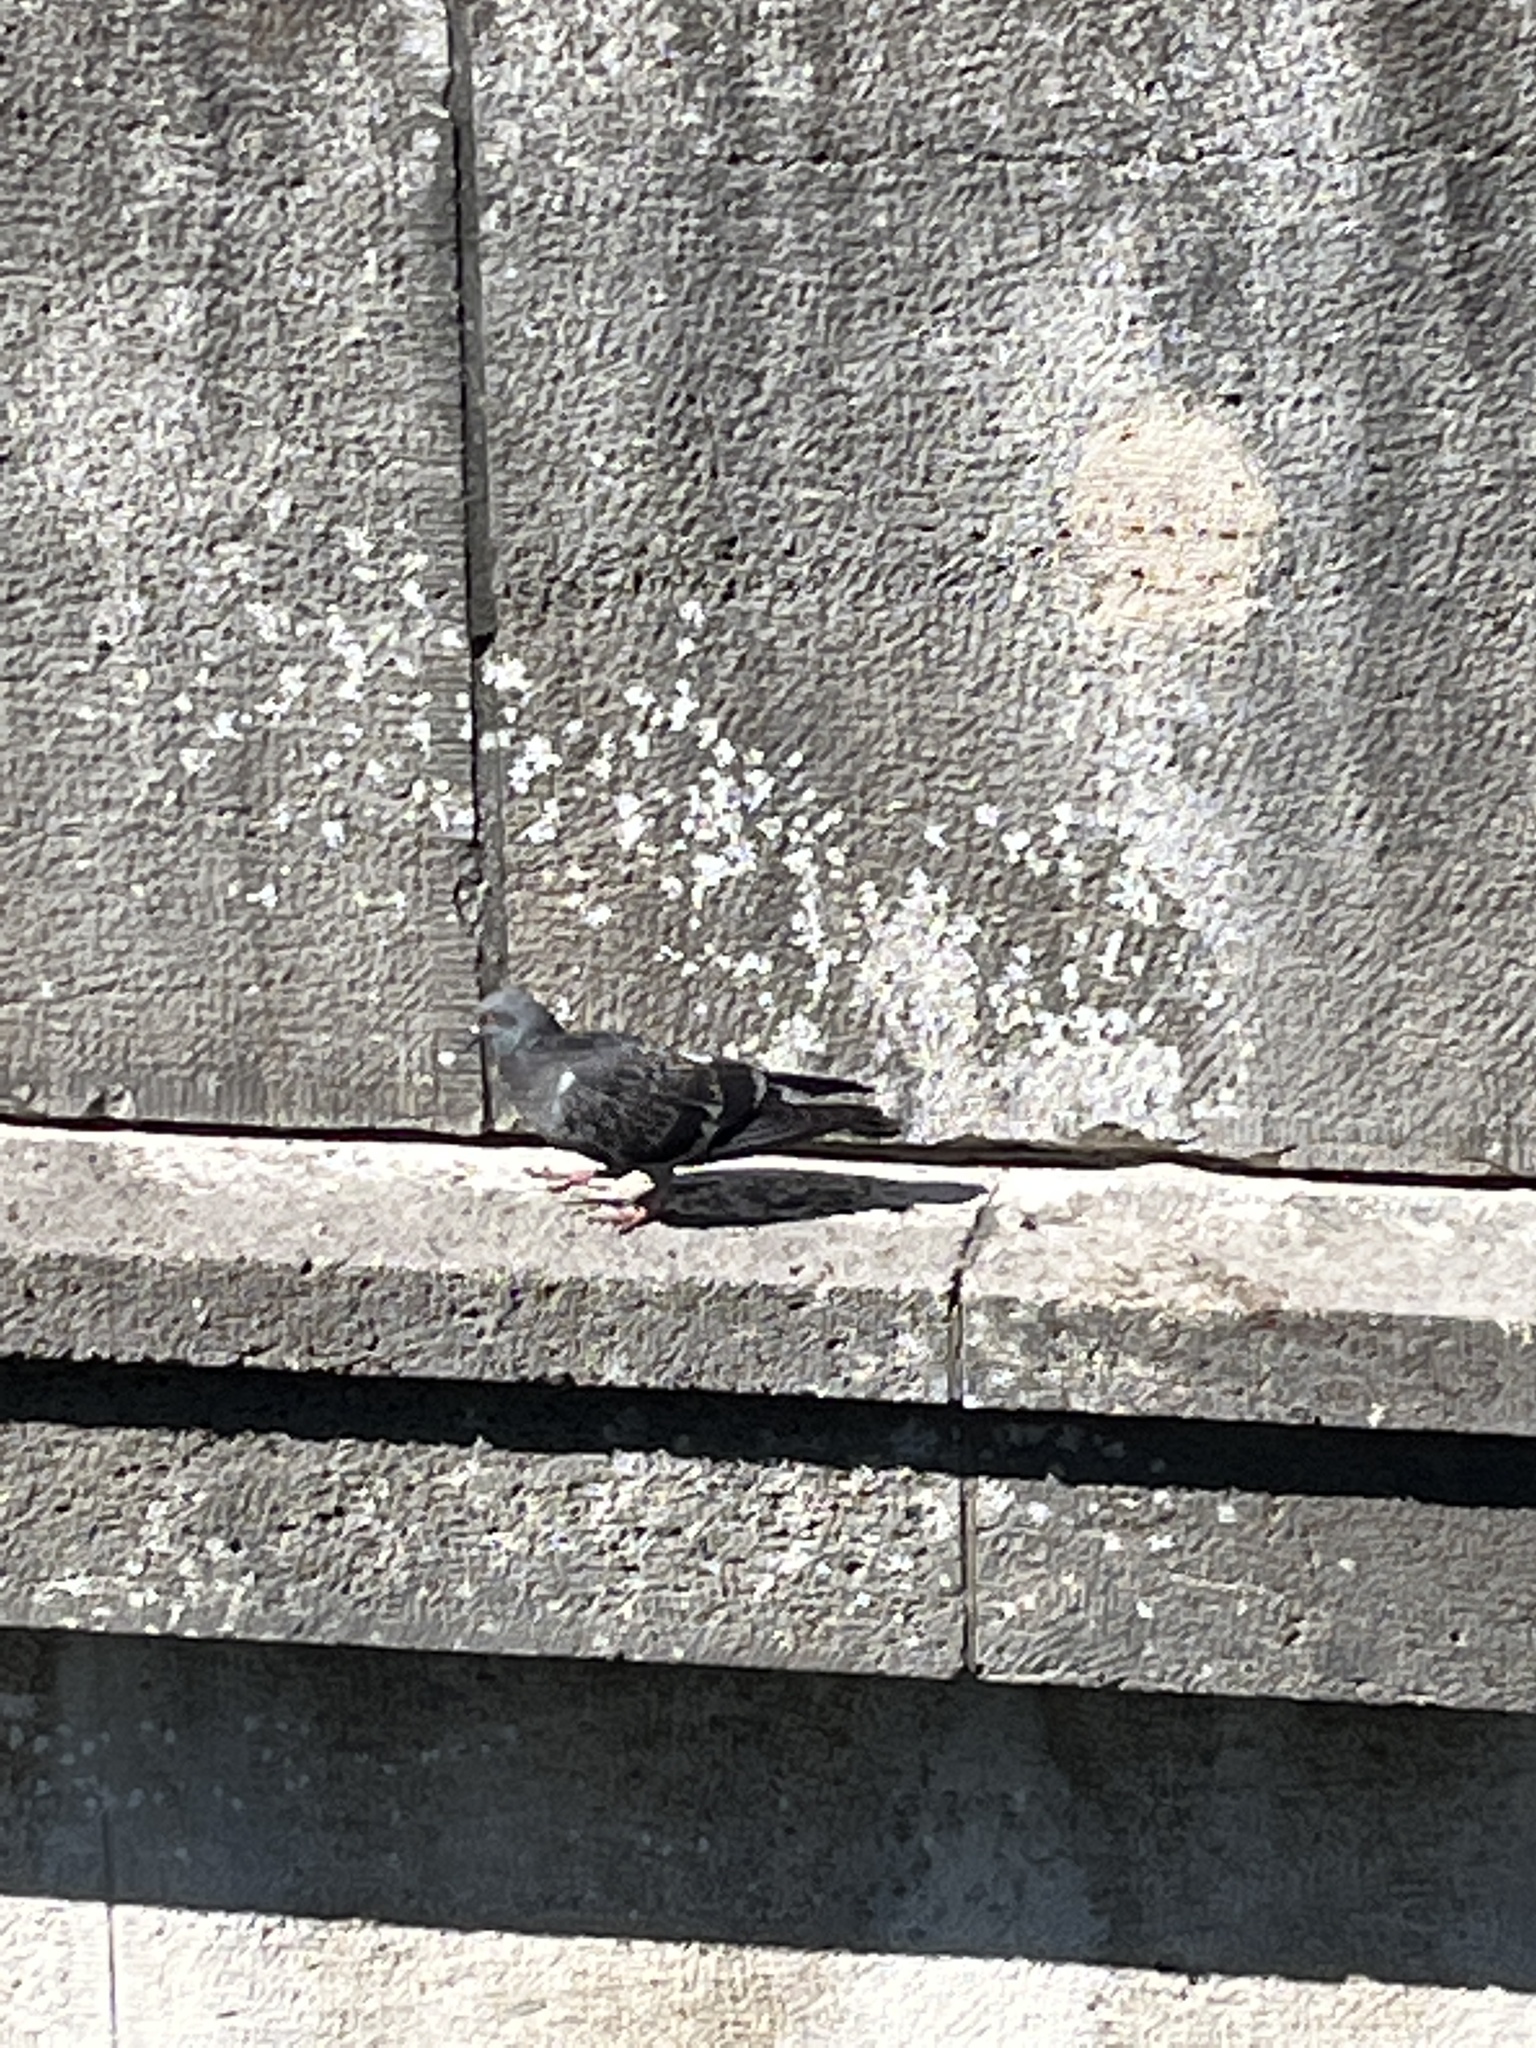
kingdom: Animalia
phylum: Chordata
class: Aves
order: Columbiformes
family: Columbidae
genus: Columba
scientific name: Columba livia
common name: Rock pigeon
